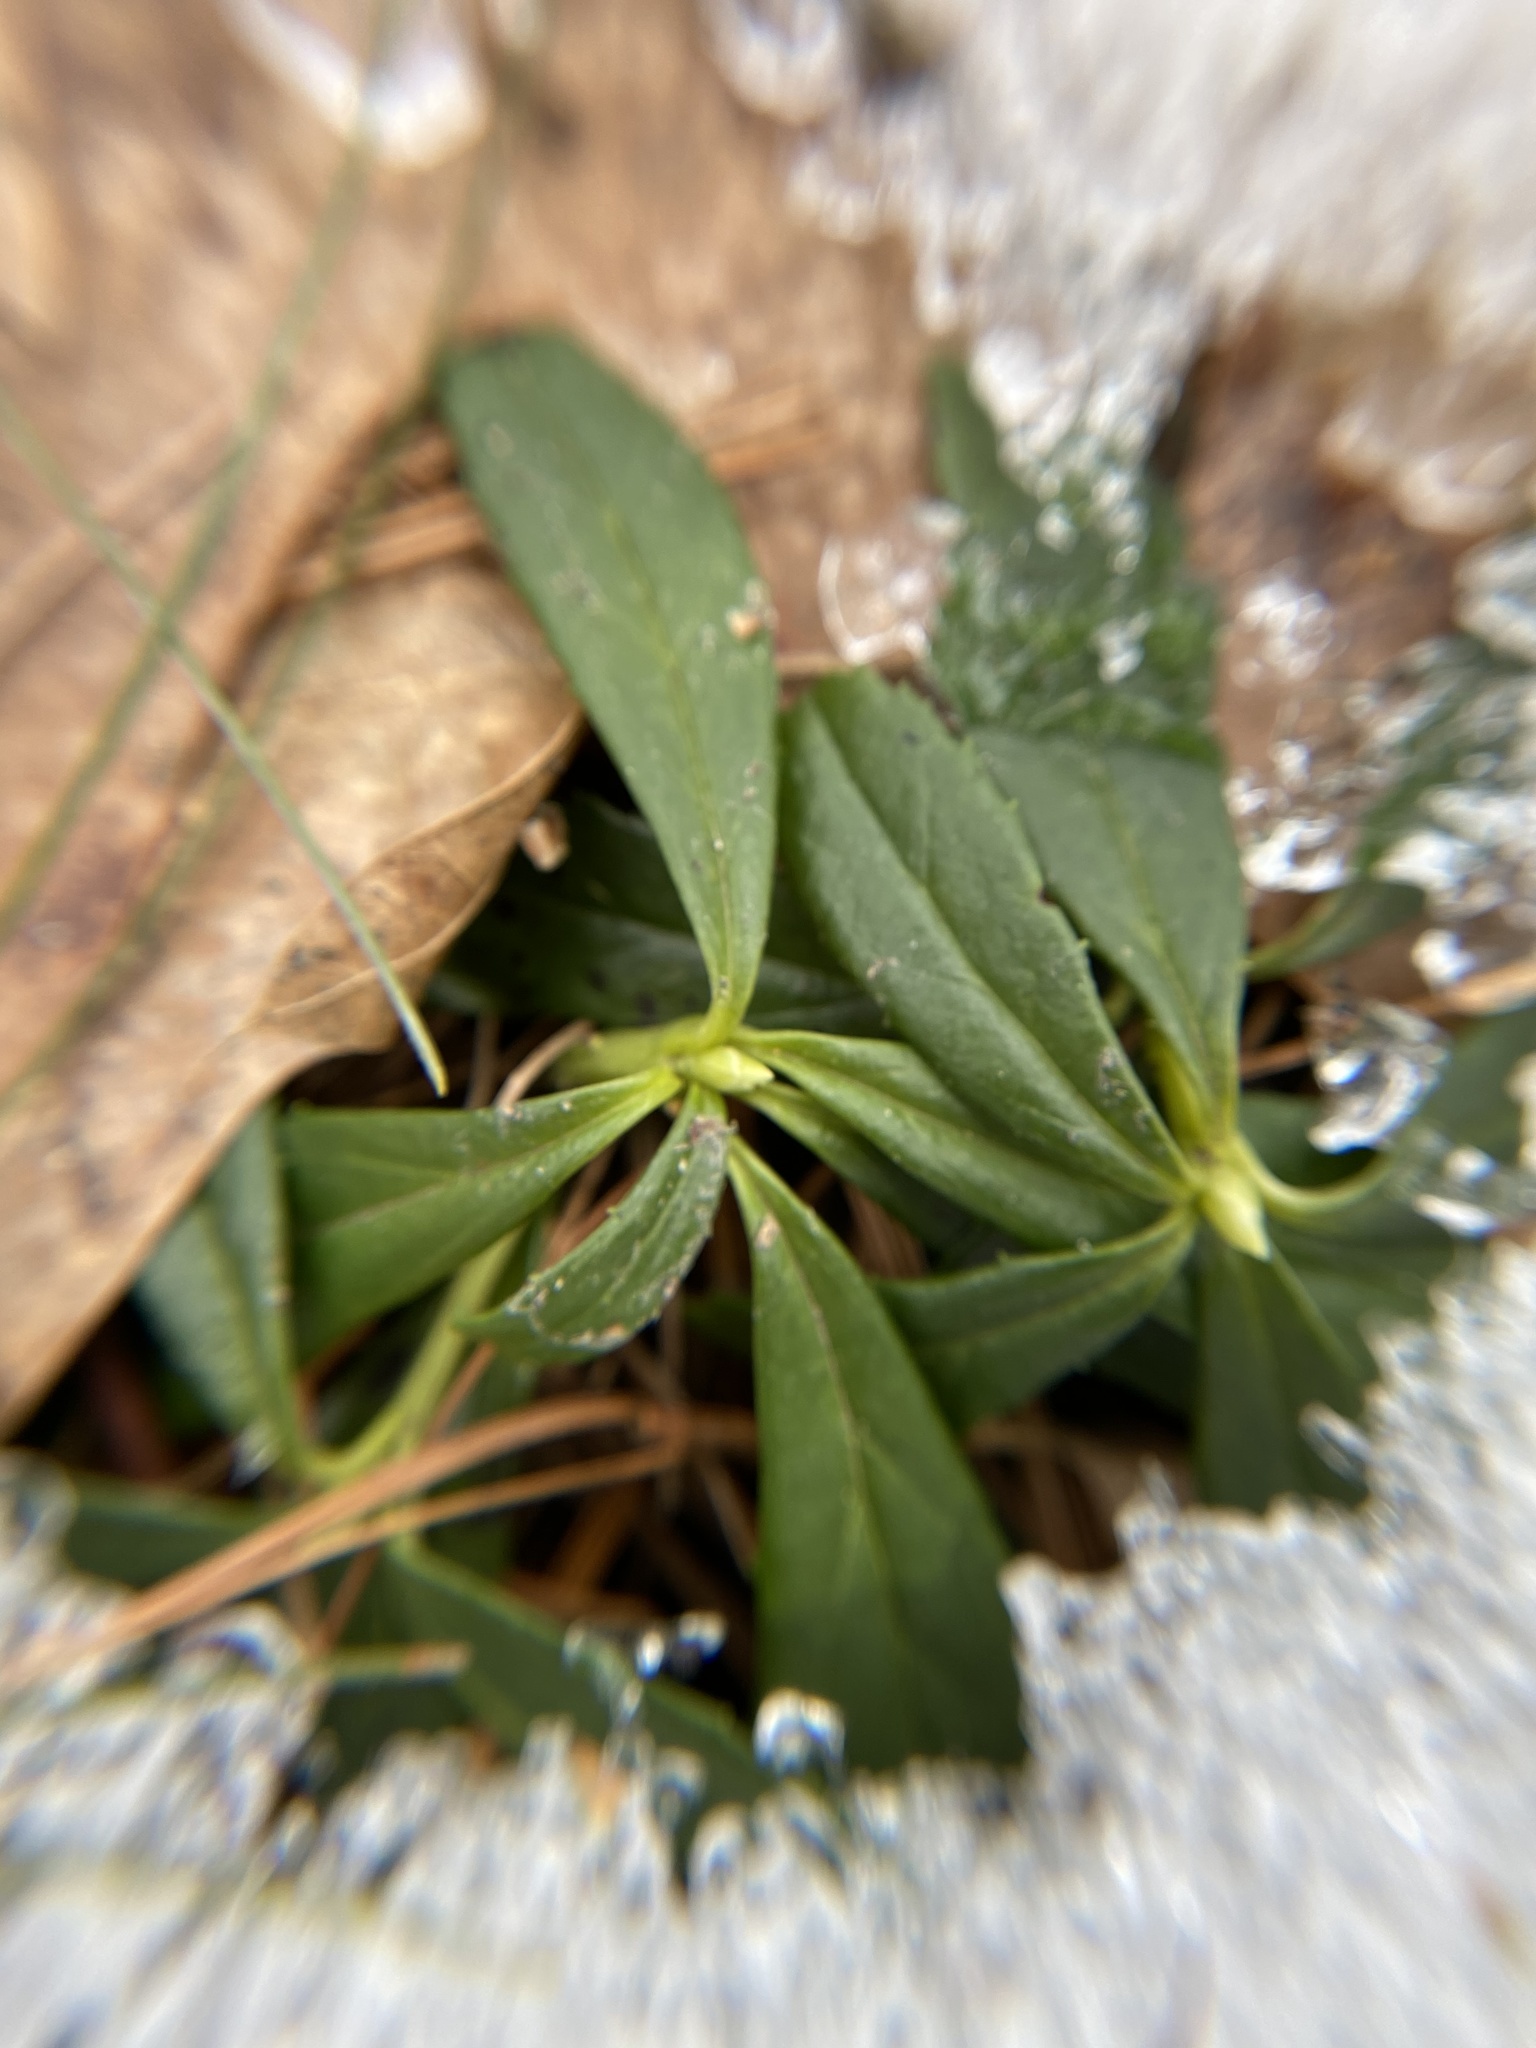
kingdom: Plantae
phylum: Tracheophyta
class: Magnoliopsida
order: Ericales
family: Ericaceae
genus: Chimaphila
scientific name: Chimaphila umbellata
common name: Pipsissewa
